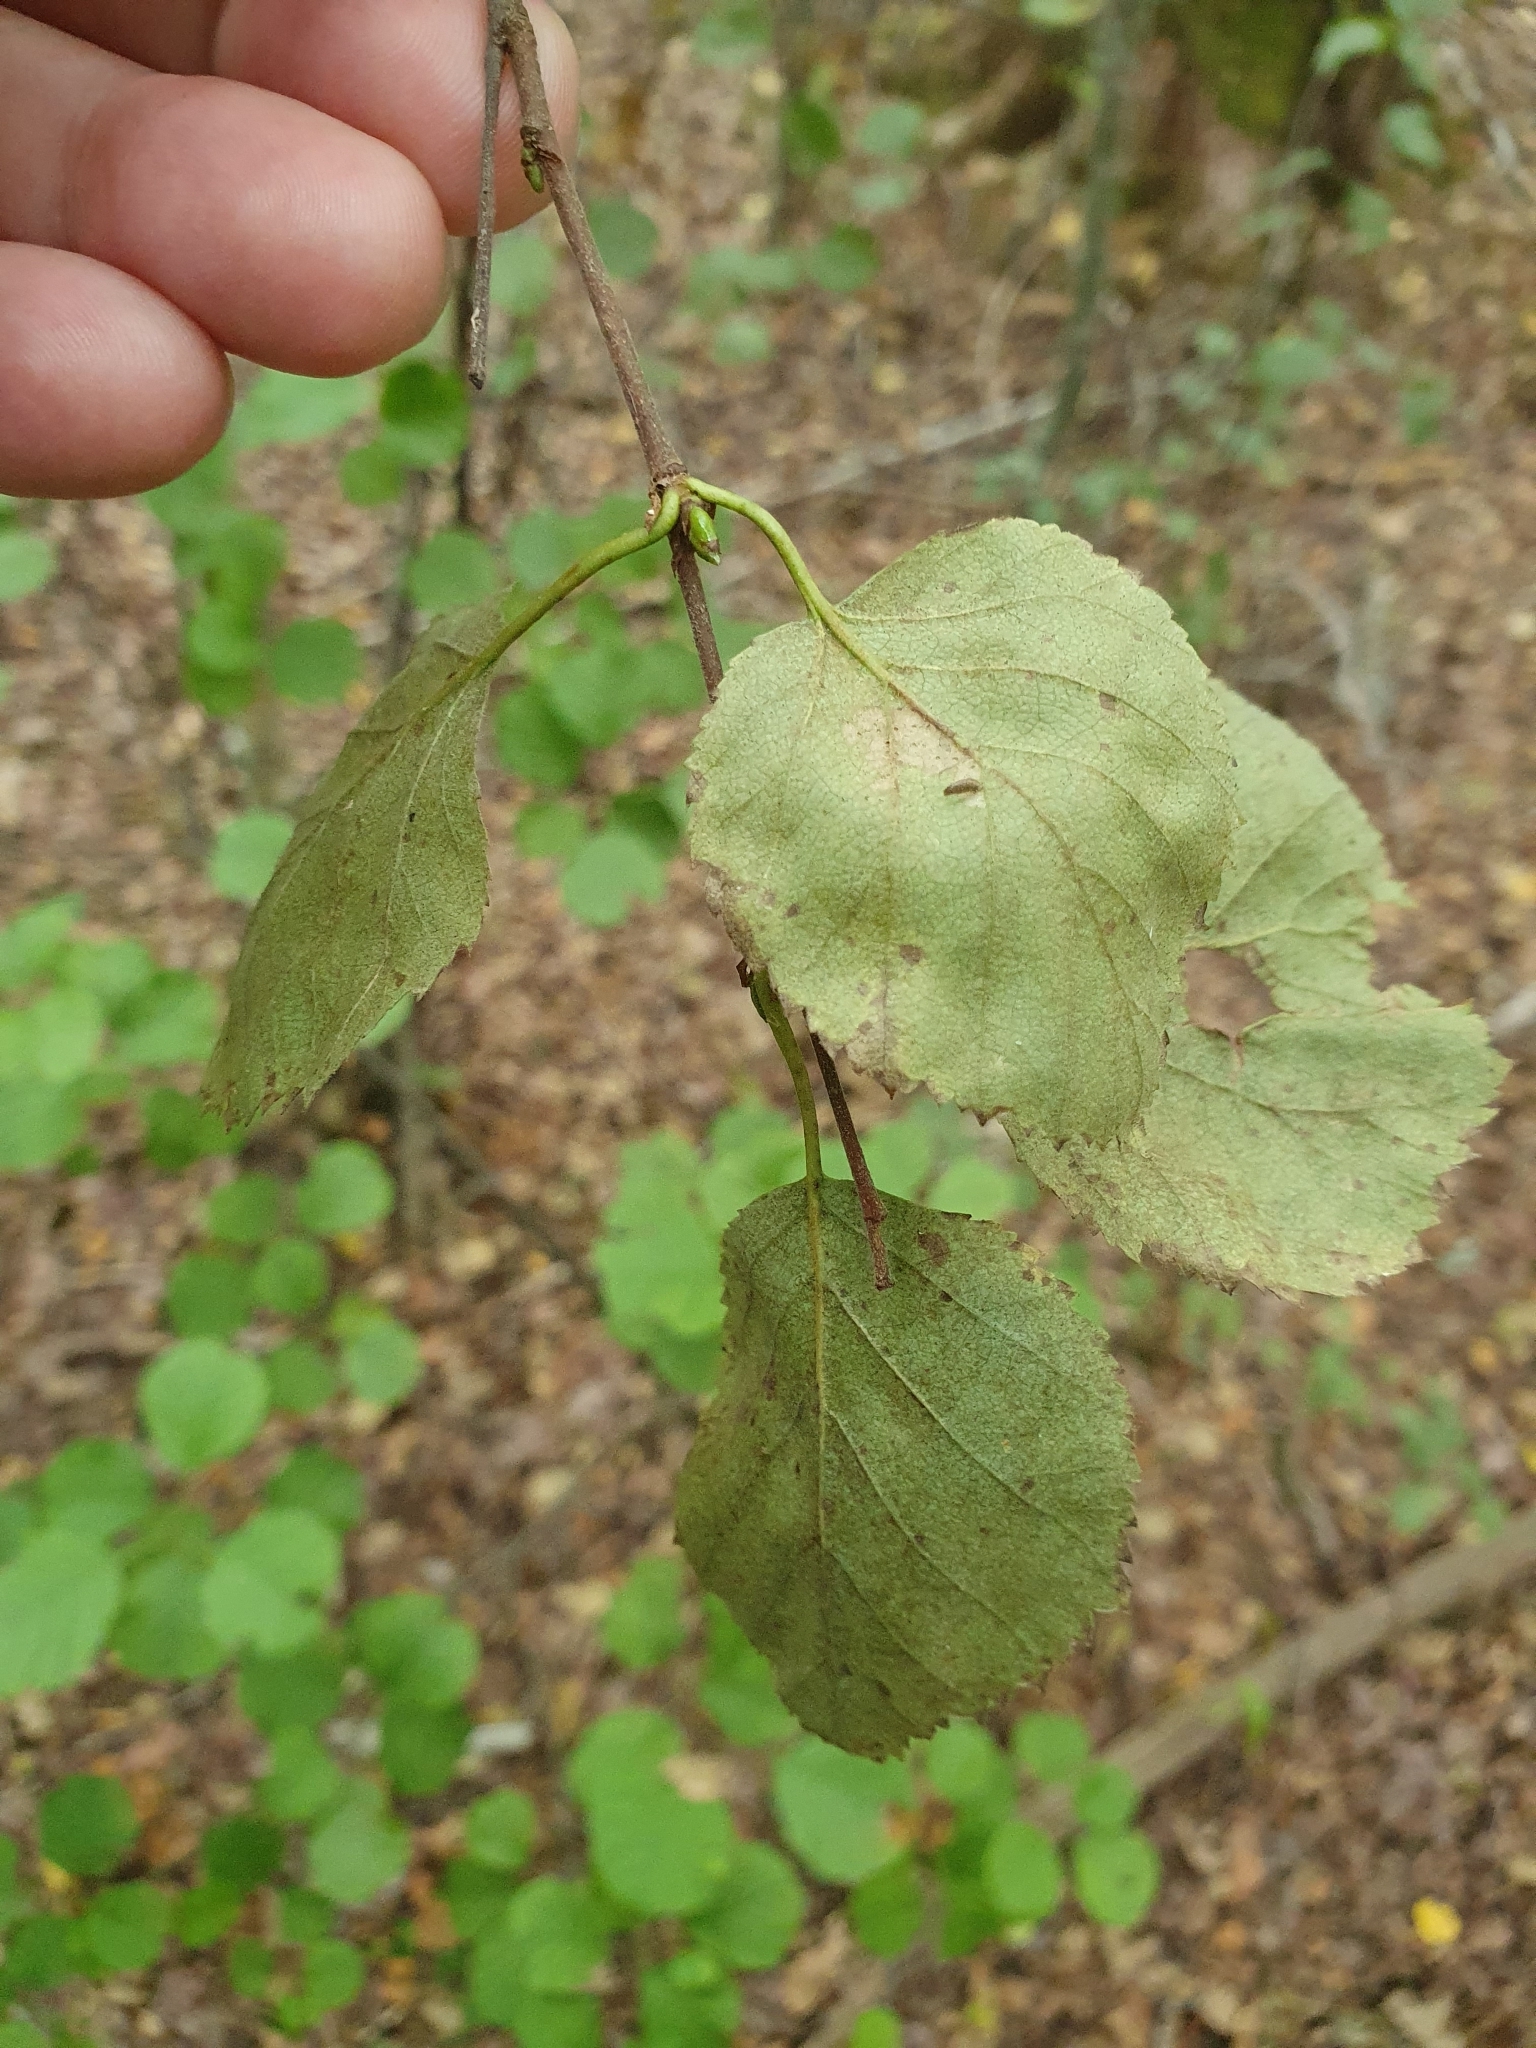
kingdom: Plantae
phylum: Tracheophyta
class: Magnoliopsida
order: Fagales
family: Betulaceae
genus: Betula
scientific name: Betula pubescens
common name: Downy birch
